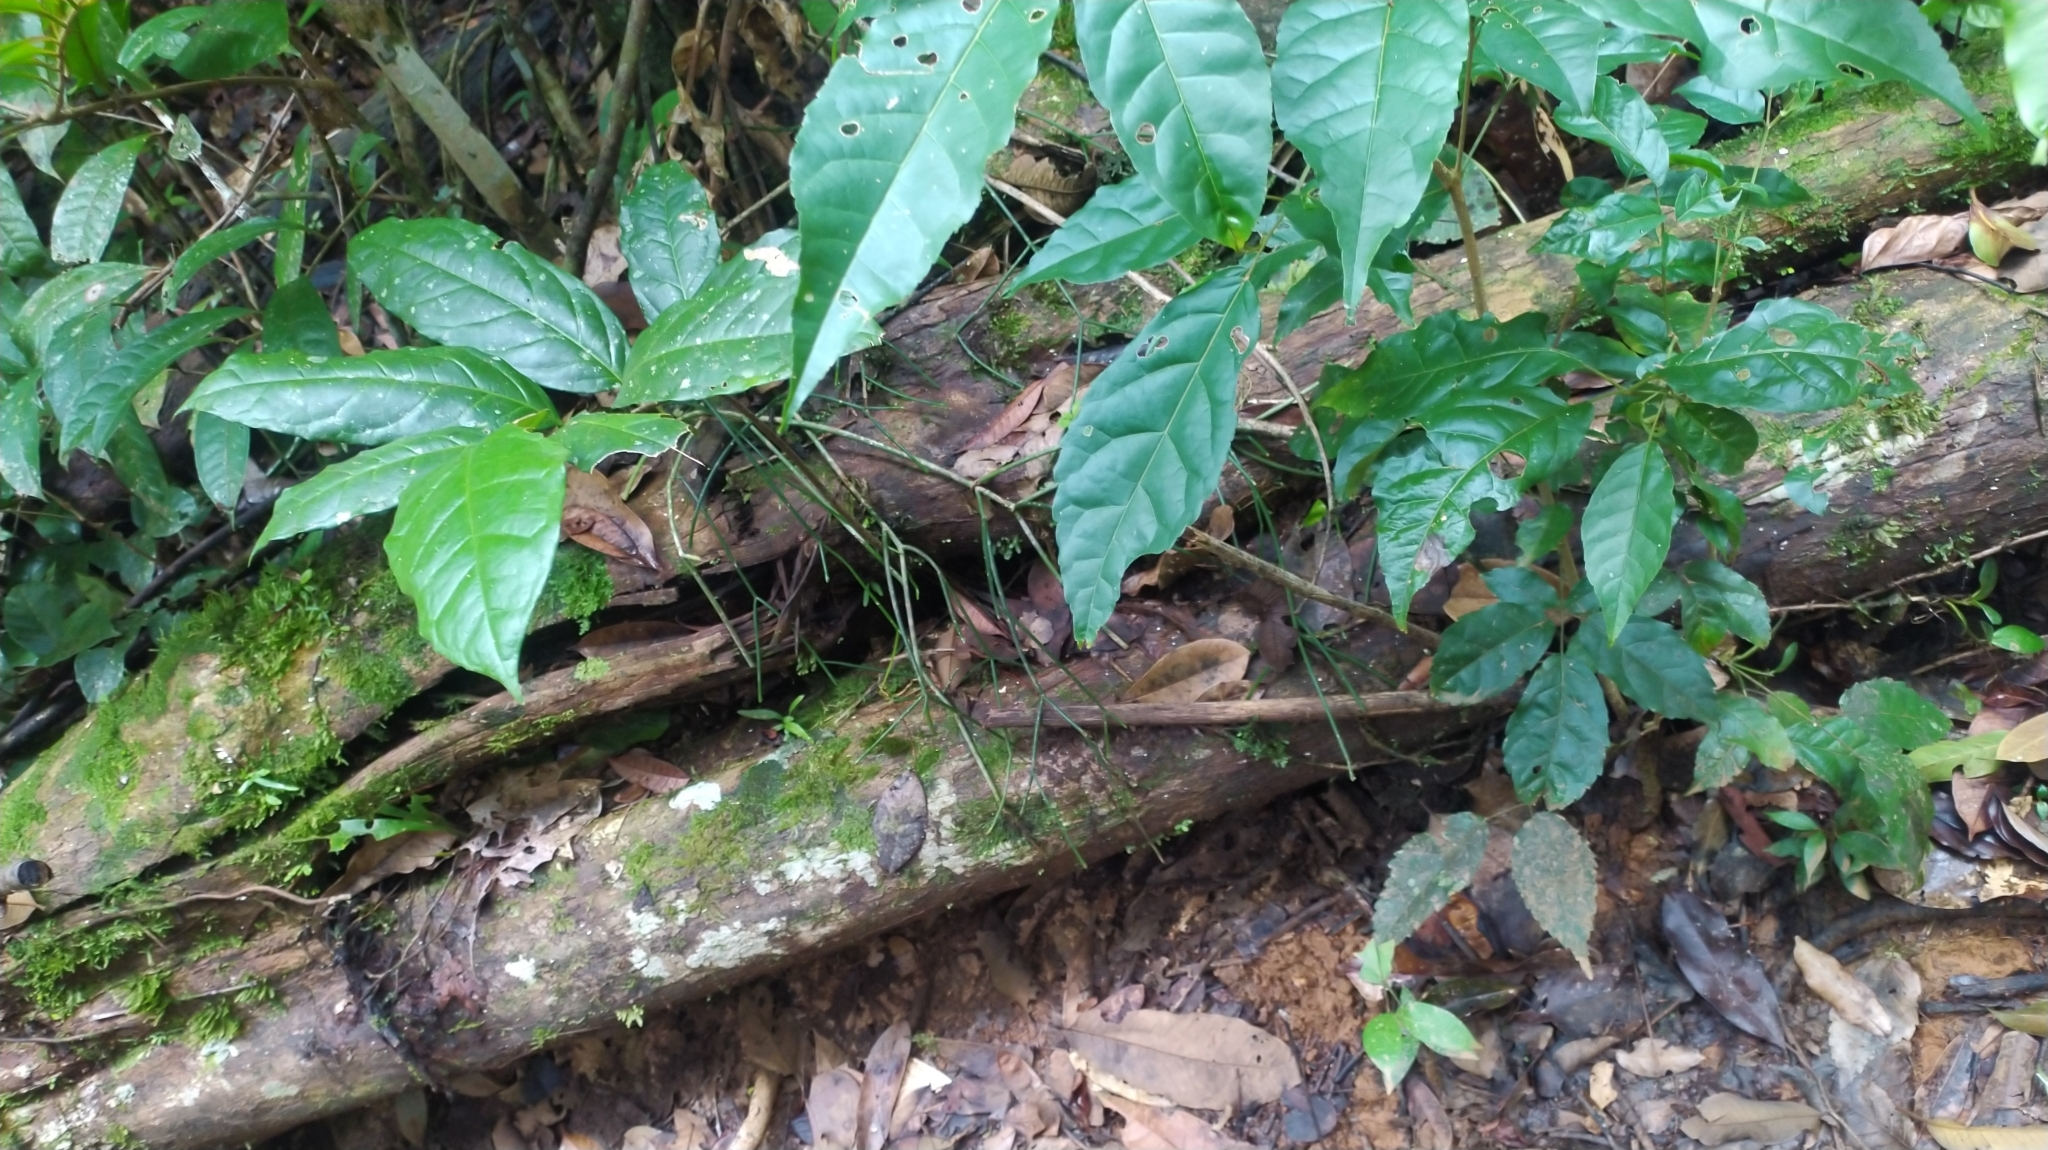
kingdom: Plantae
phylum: Tracheophyta
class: Magnoliopsida
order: Caryophyllales
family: Cactaceae
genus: Rhipsalis
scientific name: Rhipsalis baccifera
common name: Mistletoe cactus
